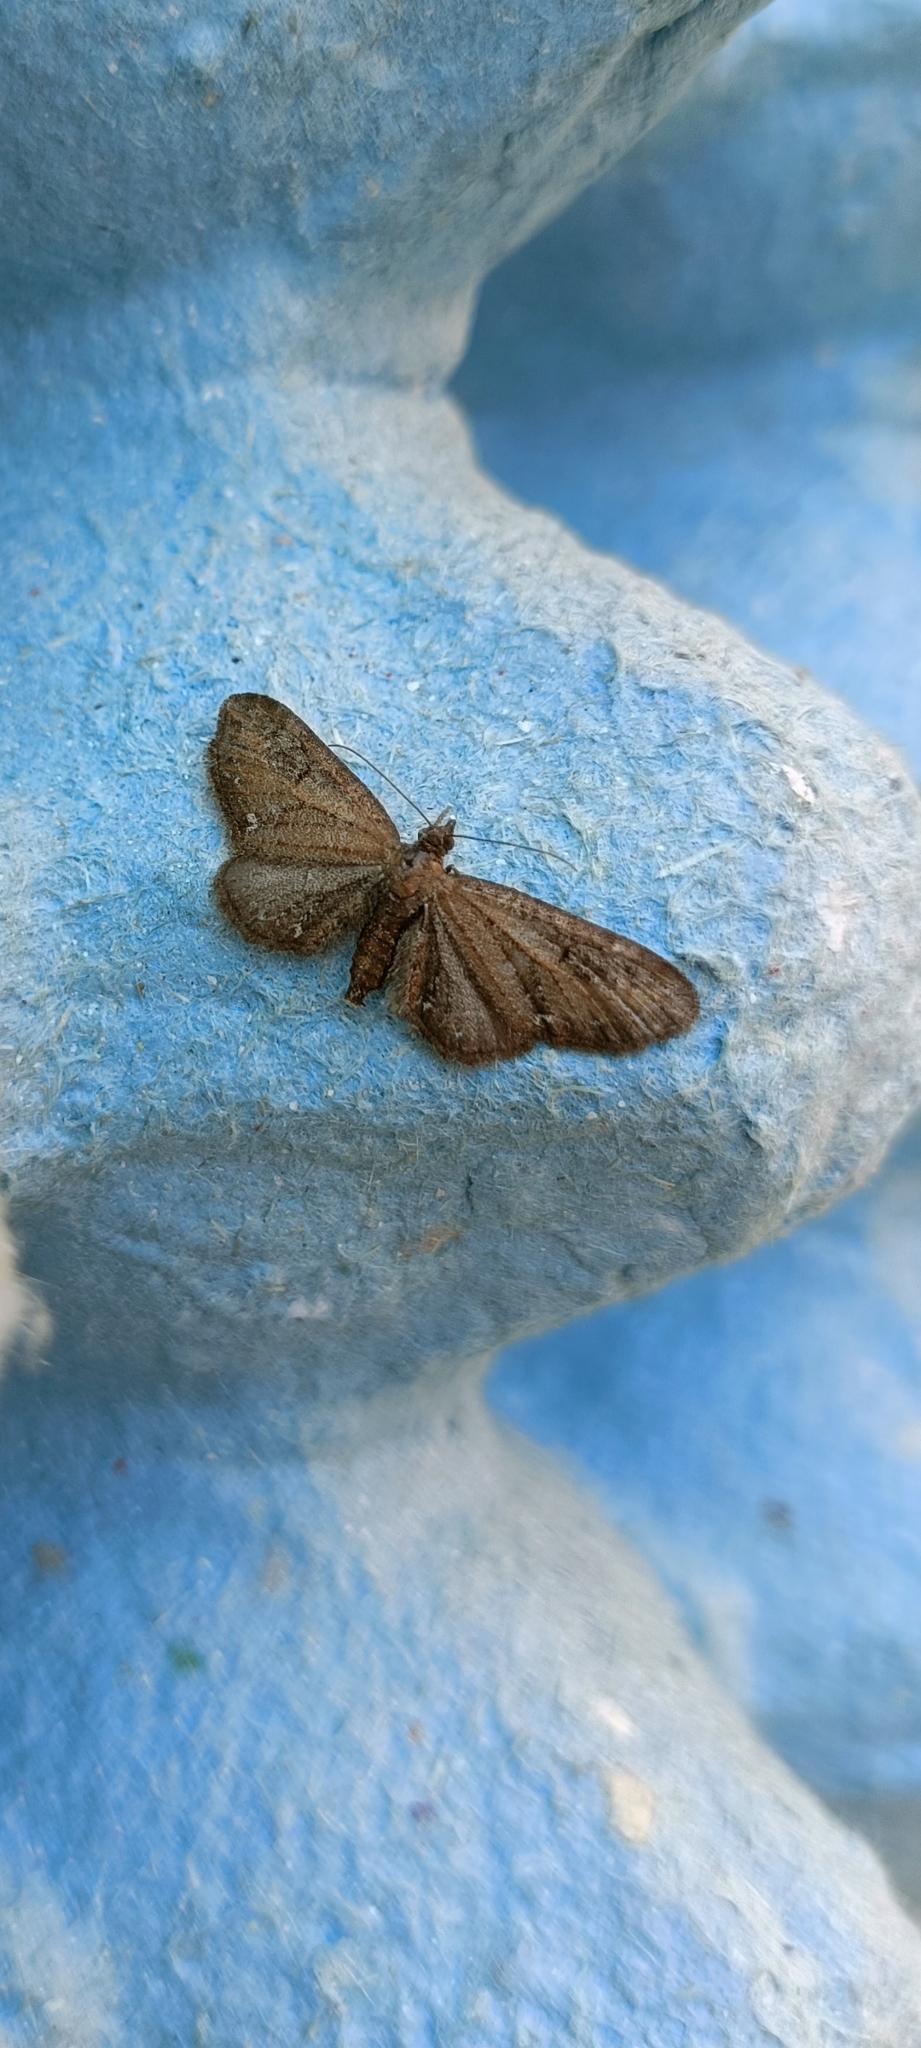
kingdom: Animalia
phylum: Arthropoda
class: Insecta
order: Lepidoptera
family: Geometridae
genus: Eupithecia
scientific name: Eupithecia vulgata
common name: Common pug
